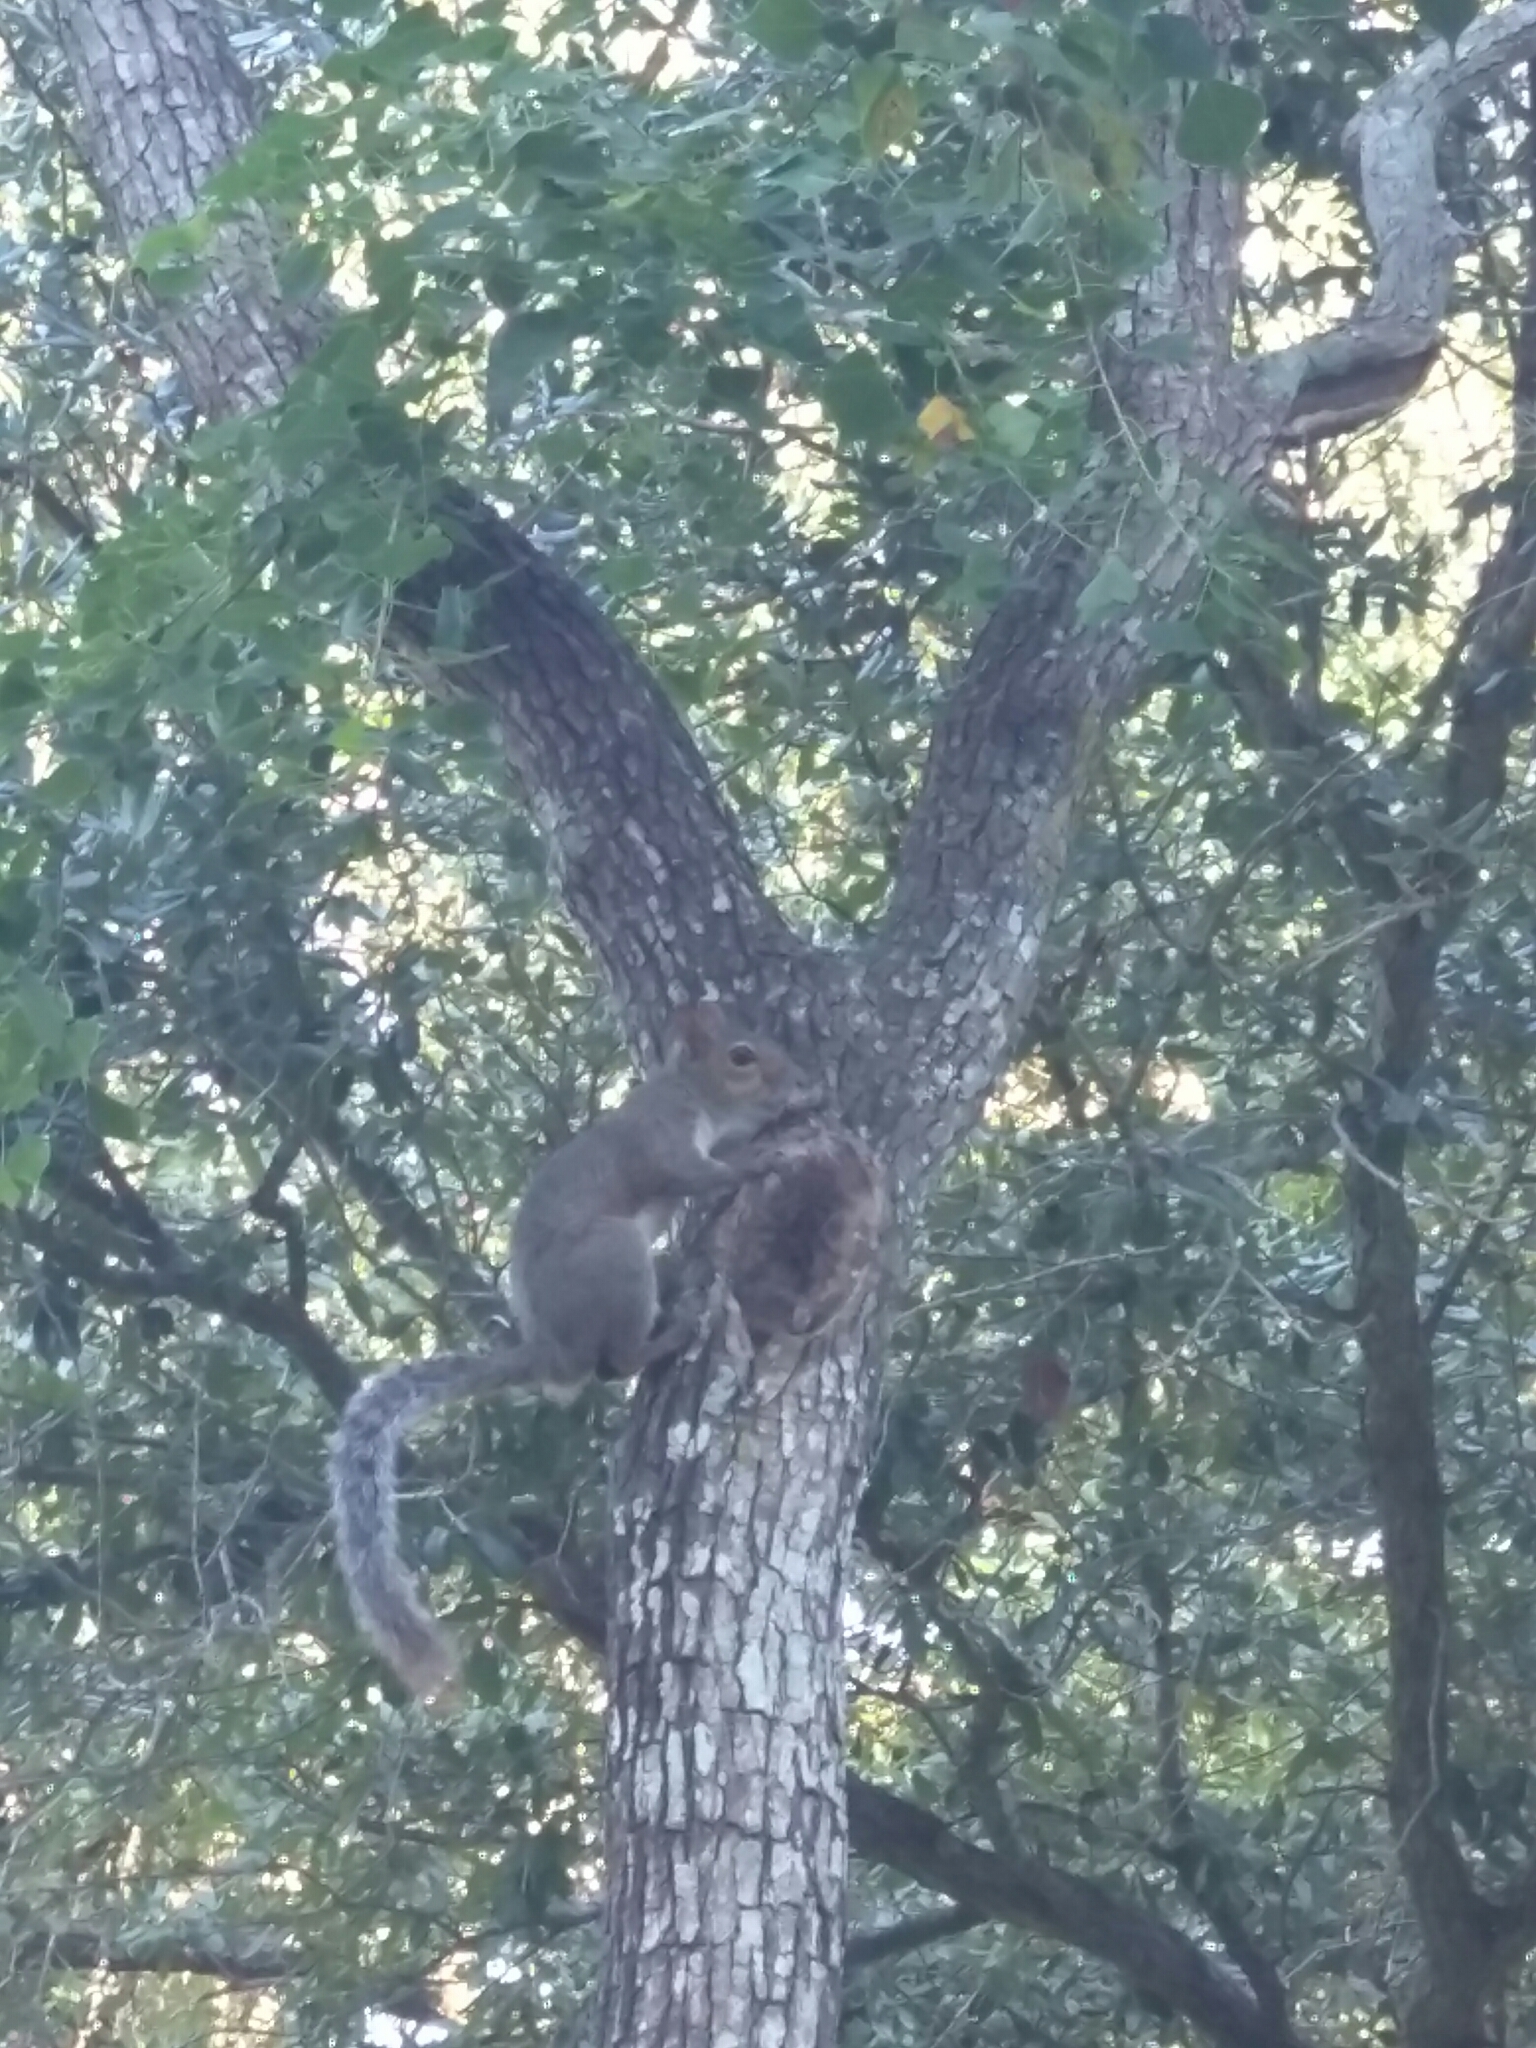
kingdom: Animalia
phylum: Chordata
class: Mammalia
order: Rodentia
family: Sciuridae
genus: Sciurus
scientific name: Sciurus carolinensis
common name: Eastern gray squirrel
